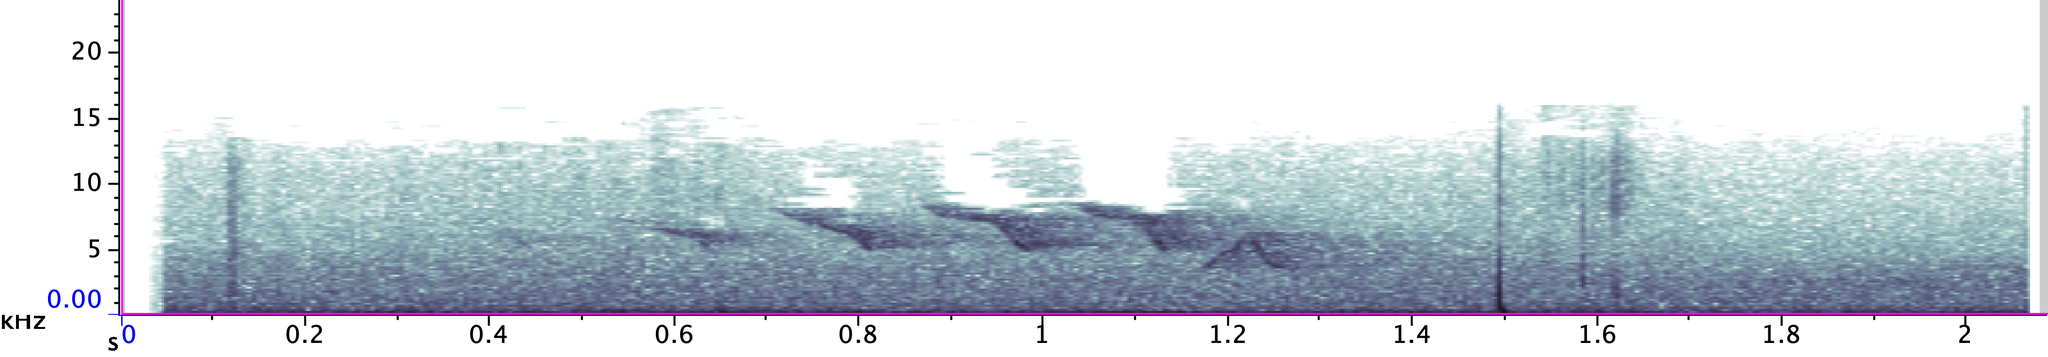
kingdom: Animalia
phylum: Chordata
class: Aves
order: Passeriformes
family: Parulidae
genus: Setophaga
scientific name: Setophaga ruticilla
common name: American redstart
